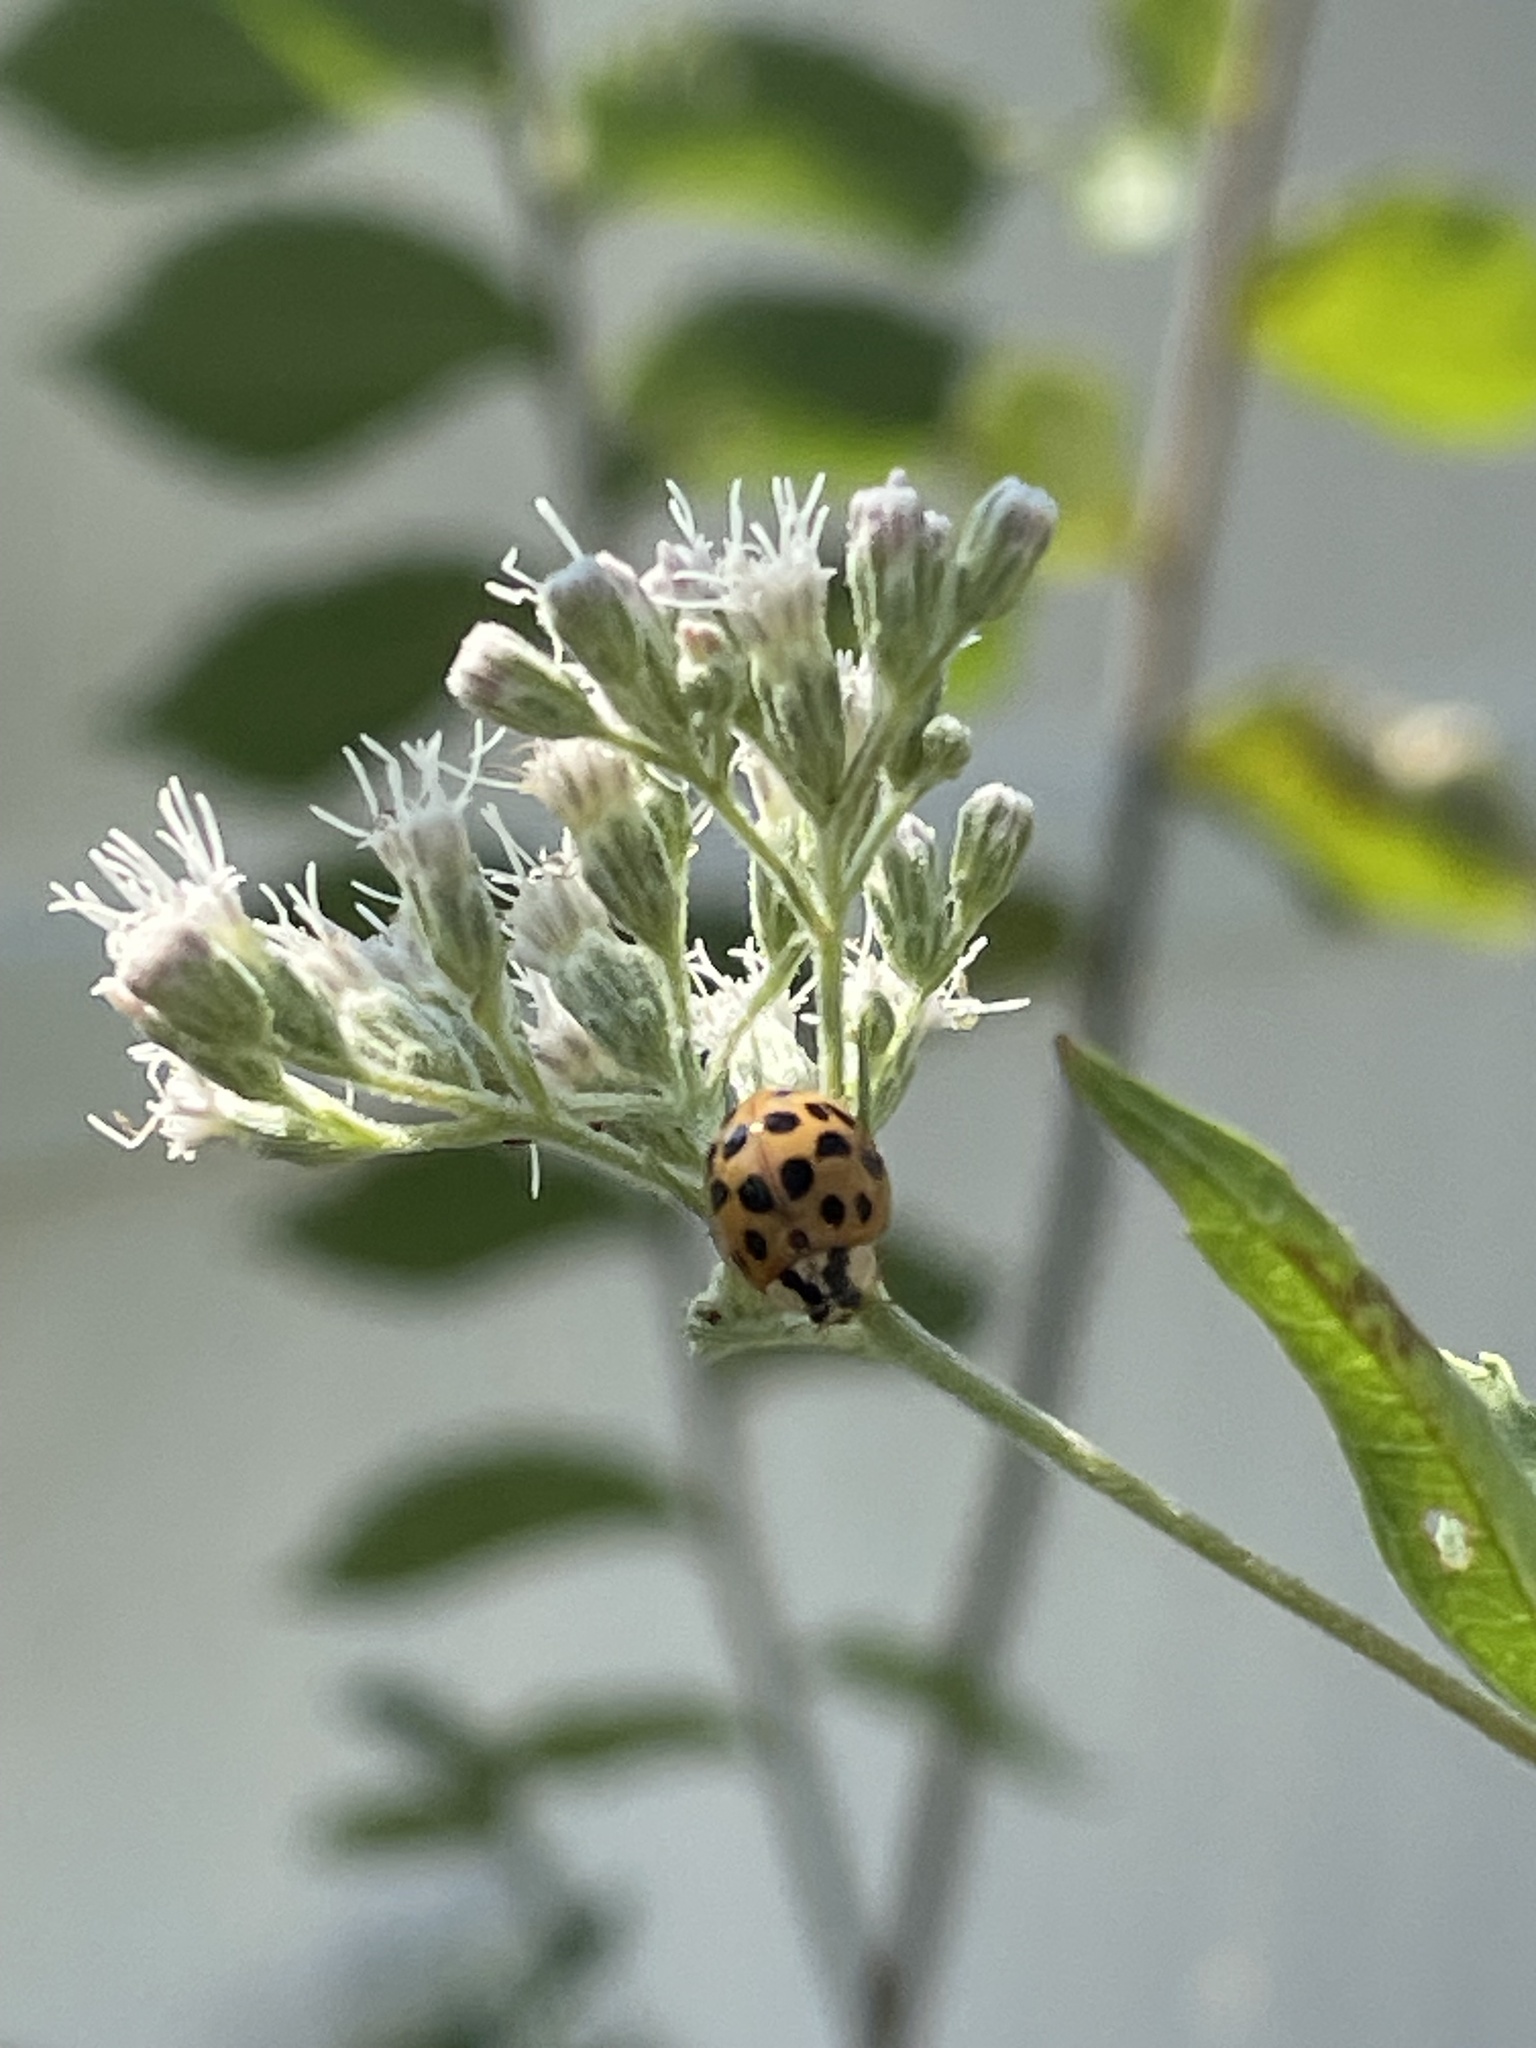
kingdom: Animalia
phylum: Arthropoda
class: Insecta
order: Coleoptera
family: Coccinellidae
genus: Harmonia
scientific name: Harmonia axyridis
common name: Harlequin ladybird
